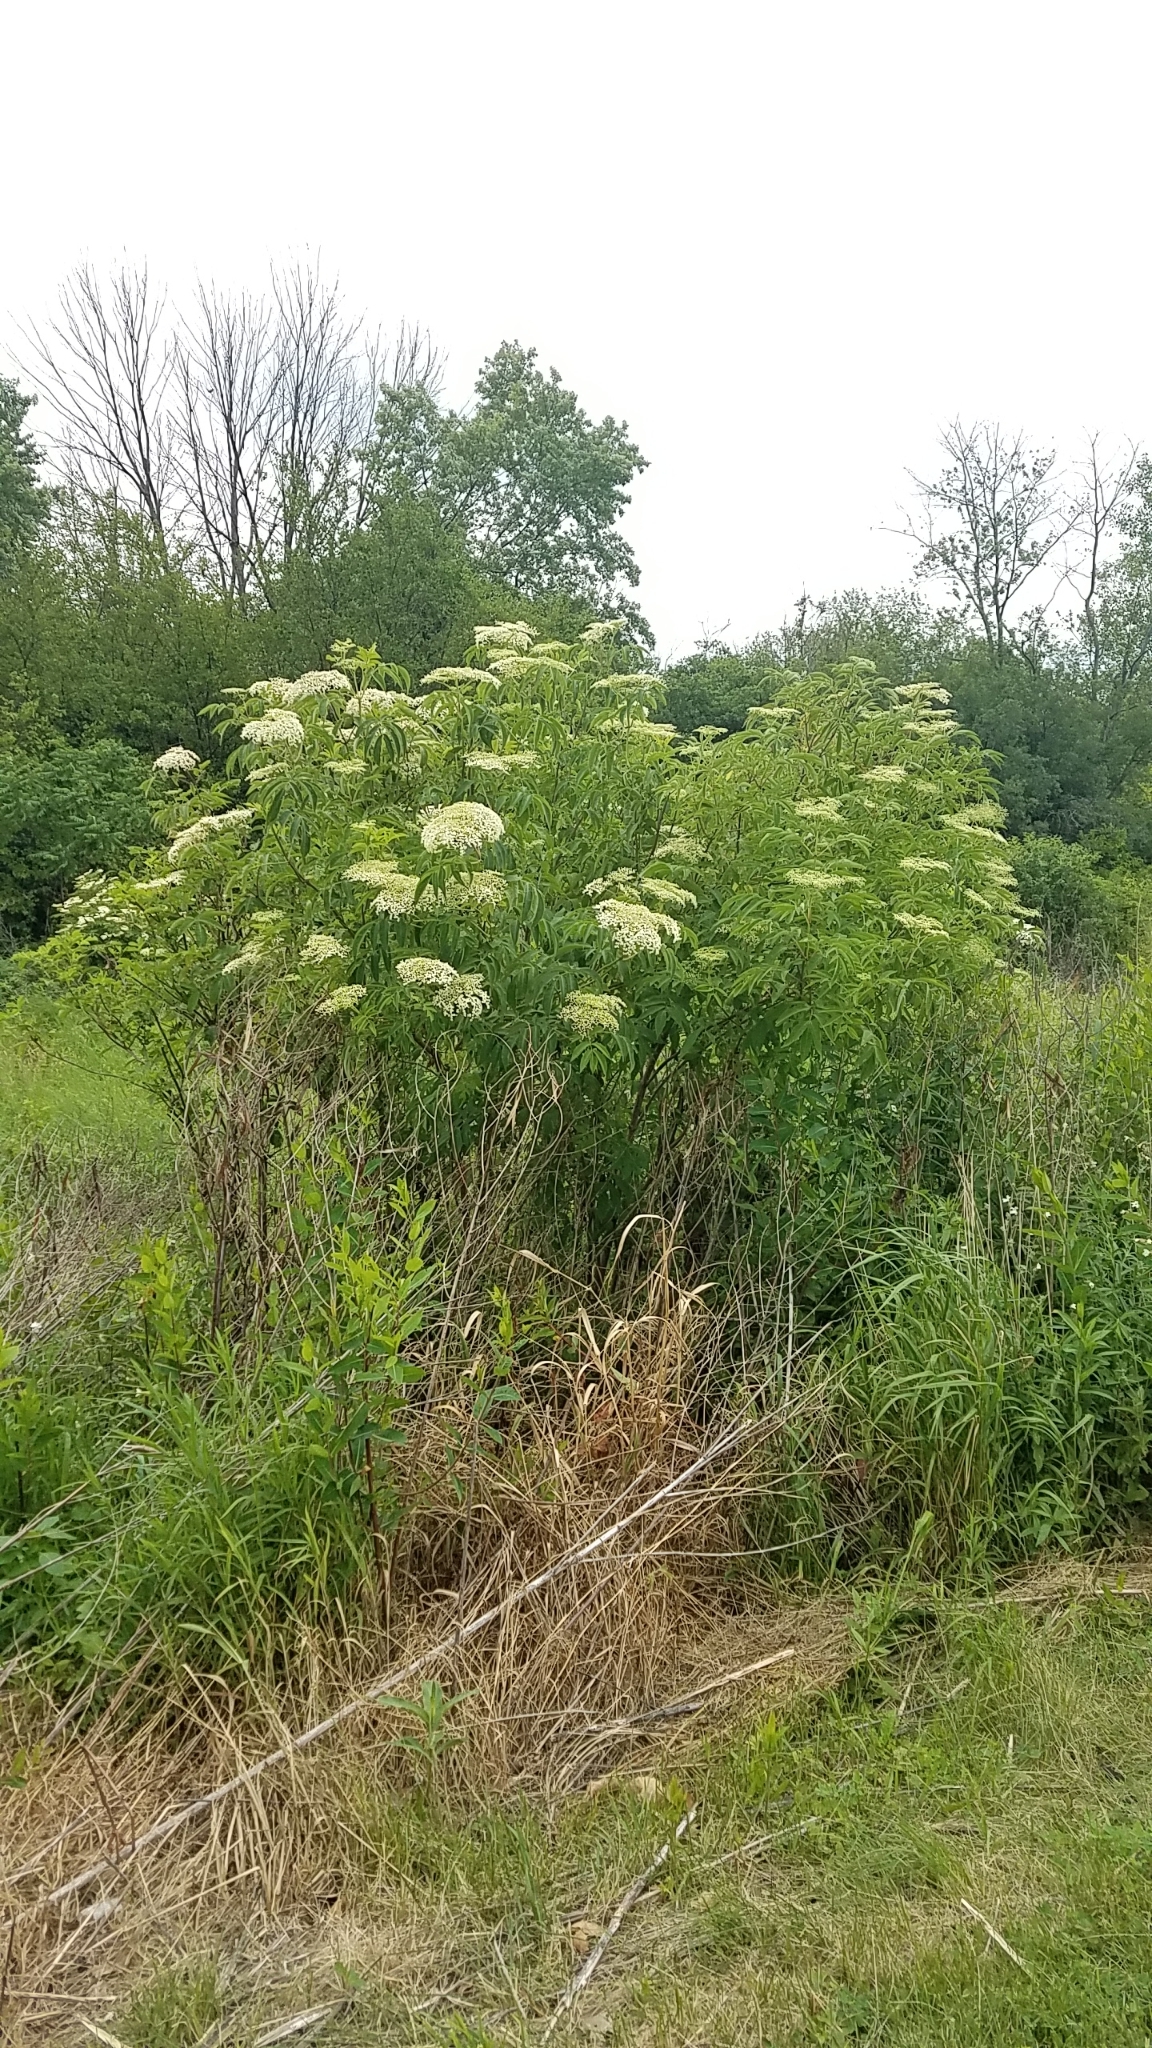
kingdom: Plantae
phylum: Tracheophyta
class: Magnoliopsida
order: Dipsacales
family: Viburnaceae
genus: Sambucus
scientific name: Sambucus canadensis
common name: American elder
